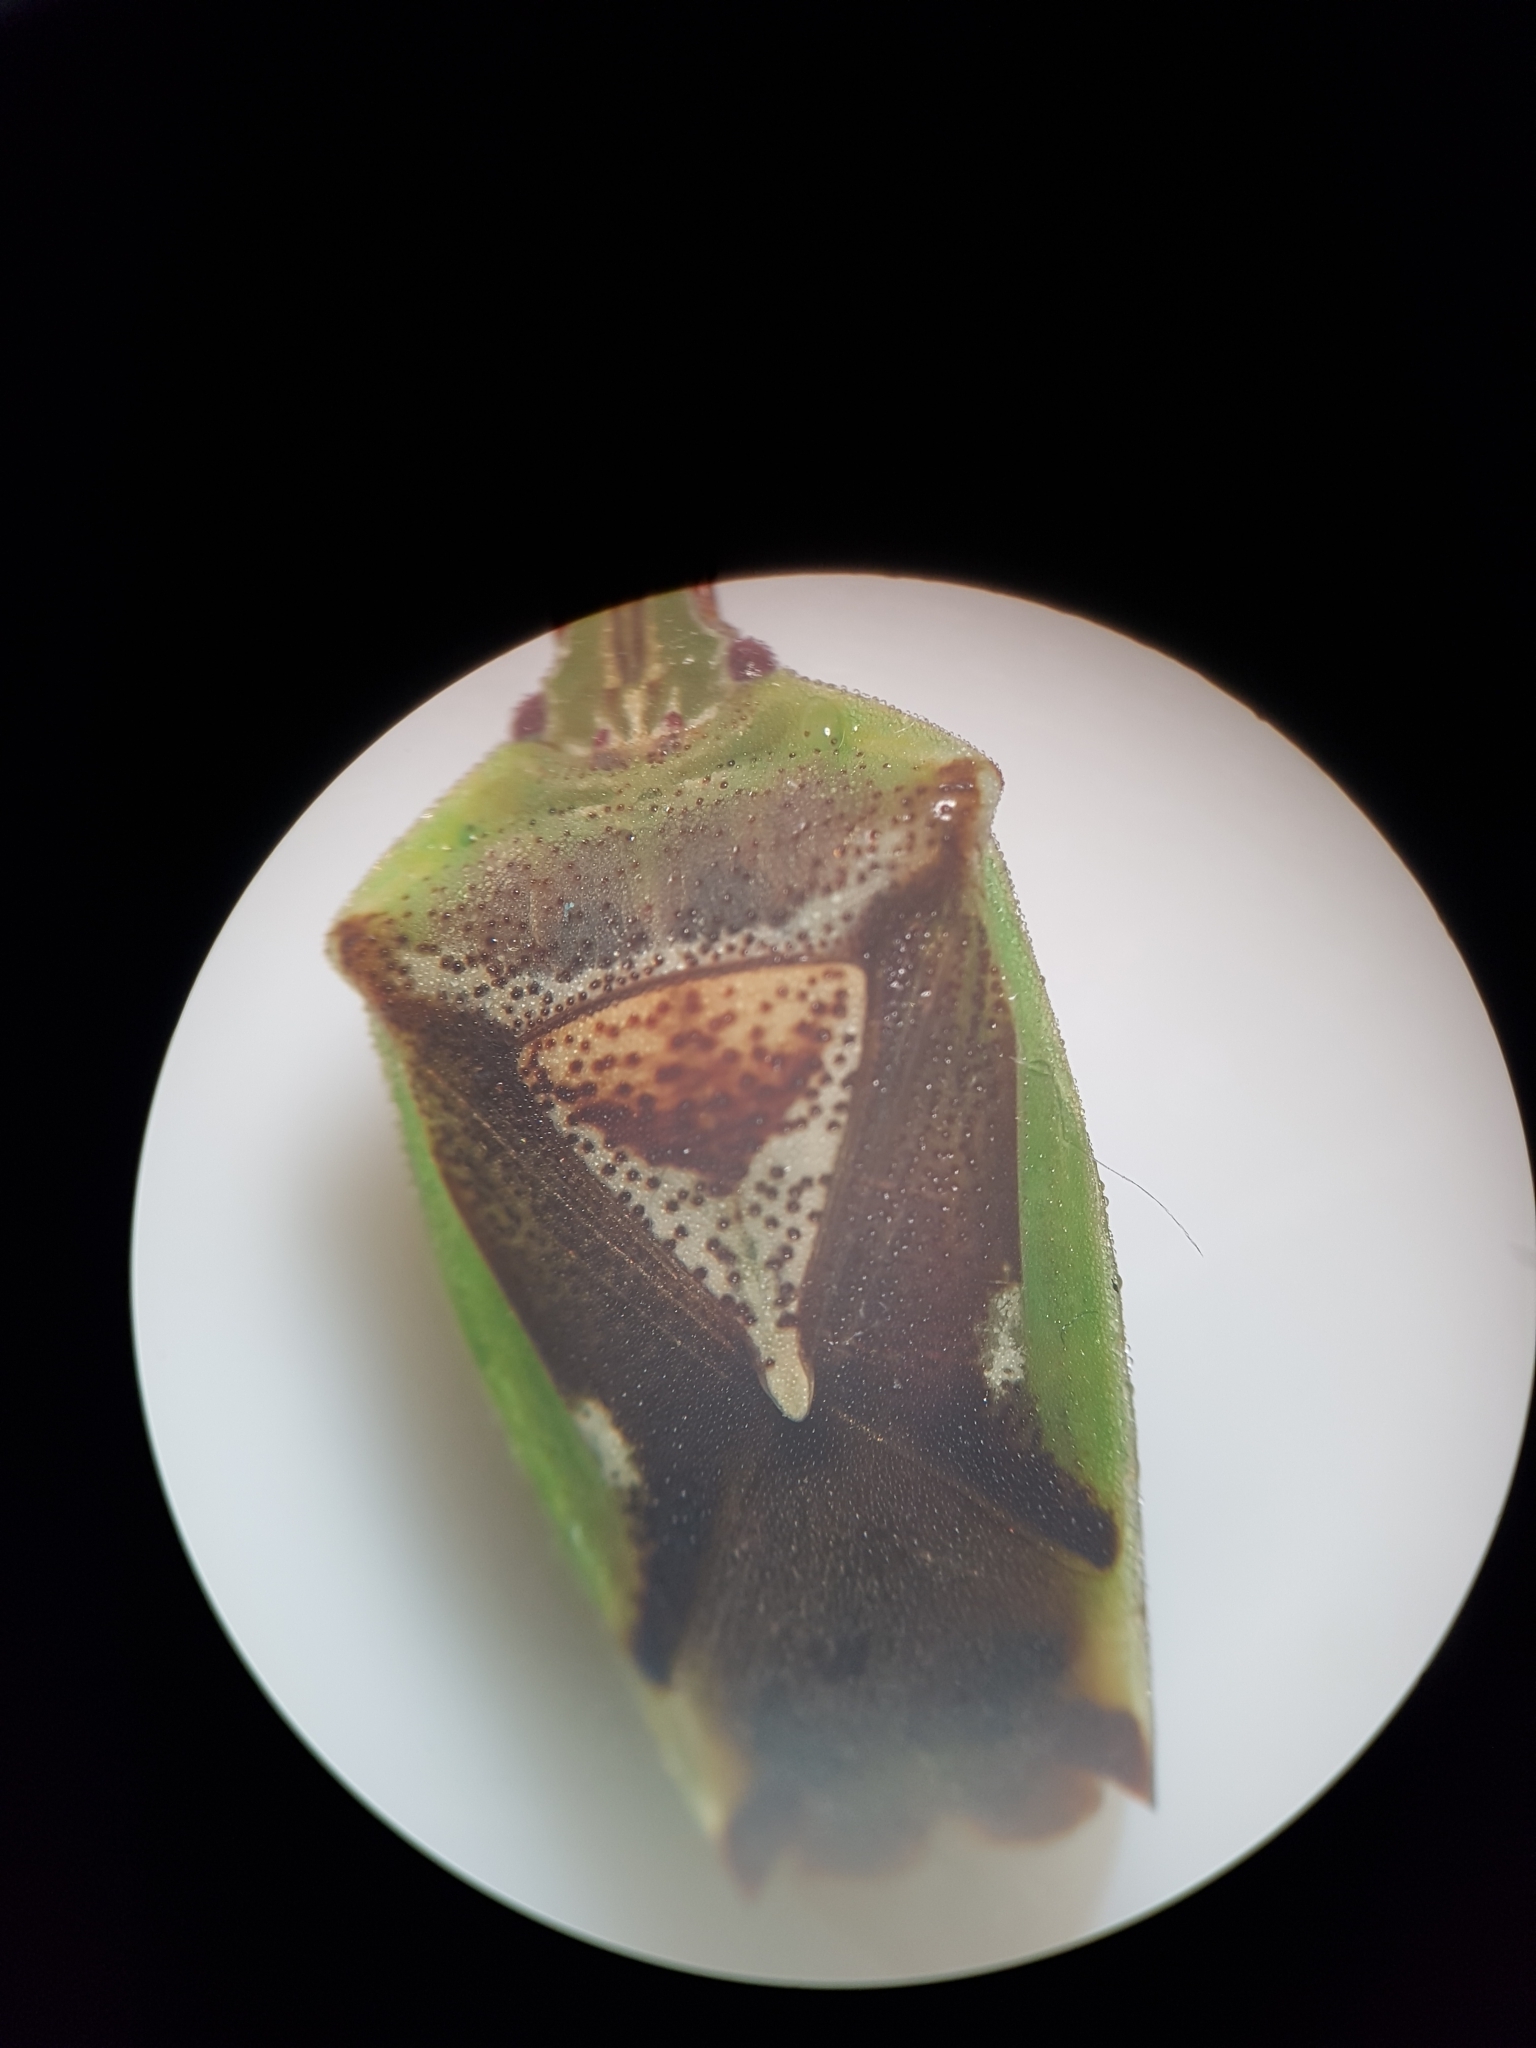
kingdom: Animalia
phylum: Arthropoda
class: Insecta
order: Hemiptera
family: Acanthosomatidae
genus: Oncacontias
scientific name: Oncacontias vittatus
